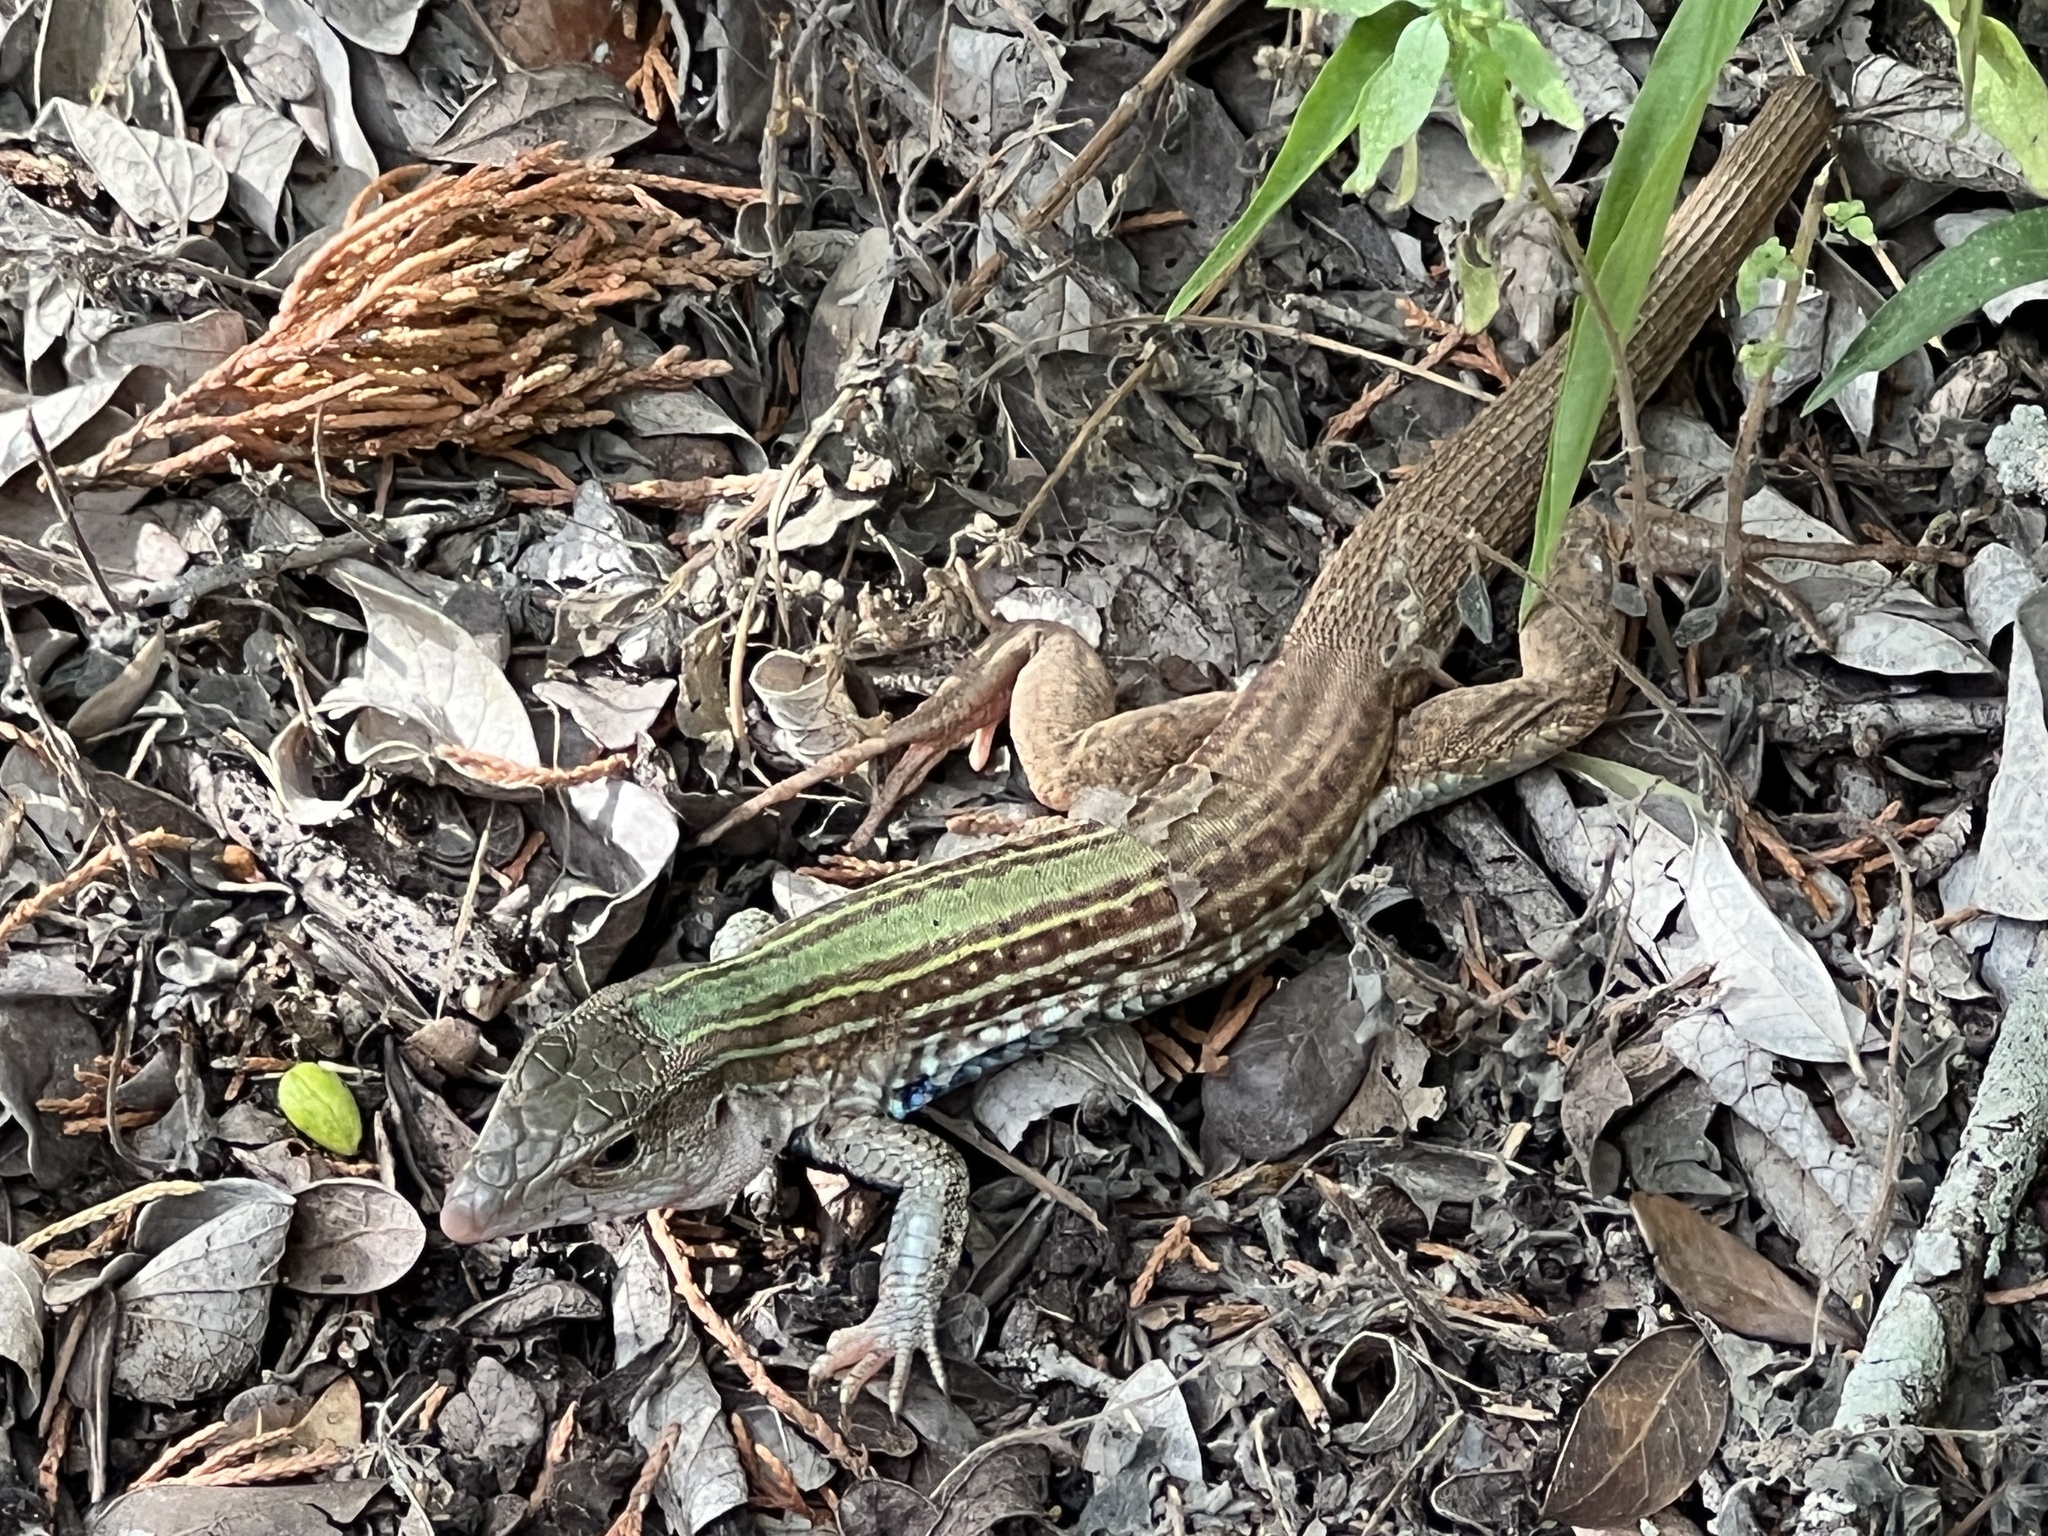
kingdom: Animalia
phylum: Chordata
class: Squamata
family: Teiidae
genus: Aspidoscelis
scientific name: Aspidoscelis gularis
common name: Eastern spotted whiptail
